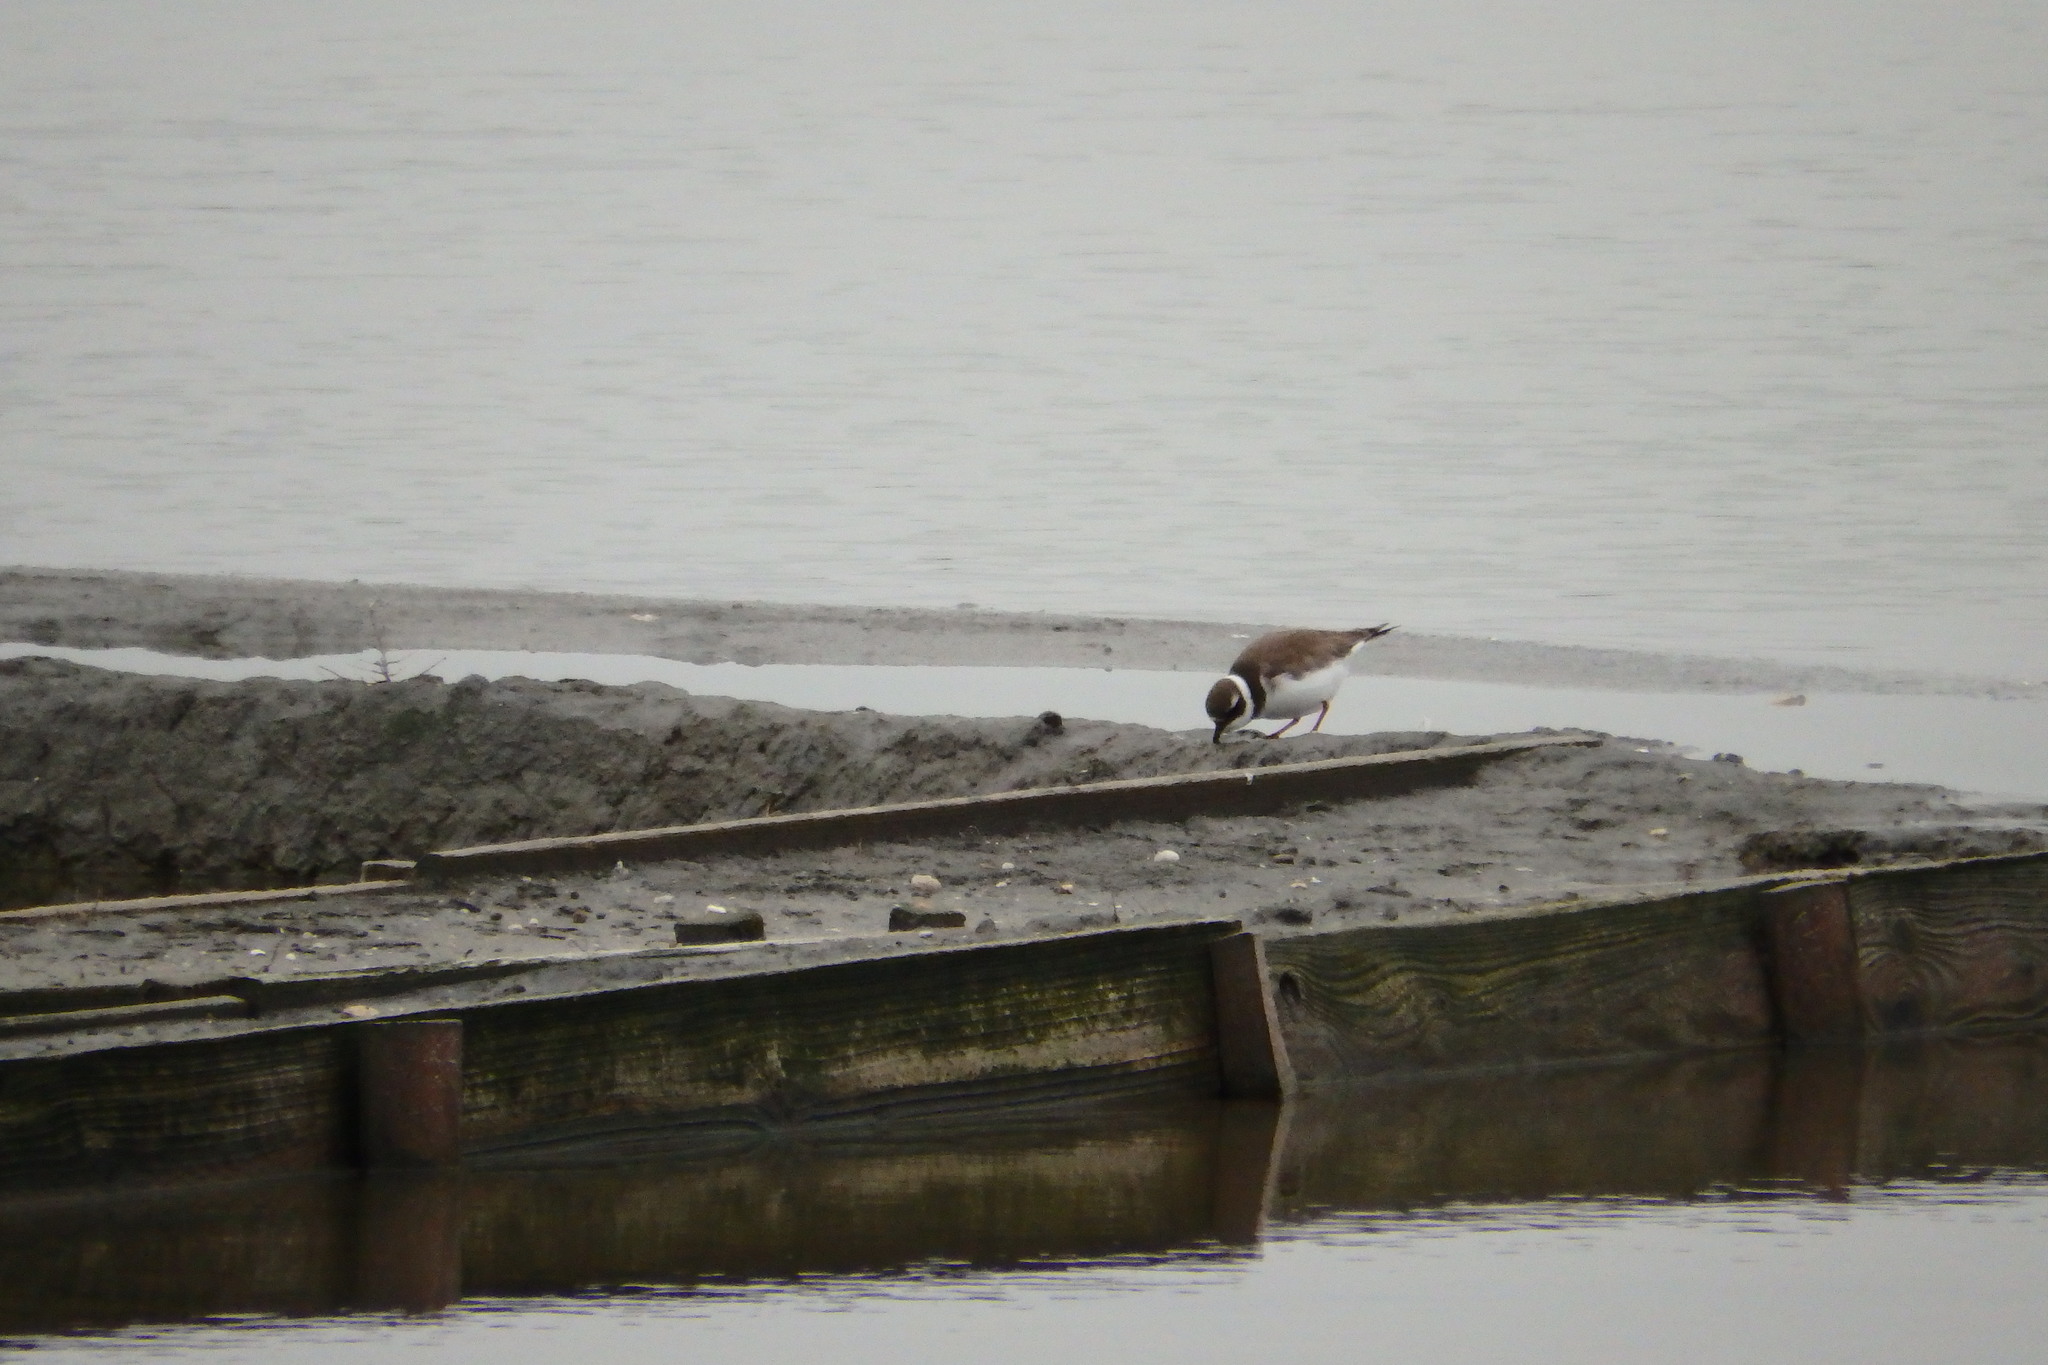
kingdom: Animalia
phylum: Chordata
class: Aves
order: Charadriiformes
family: Charadriidae
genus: Charadrius
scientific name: Charadrius hiaticula
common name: Common ringed plover
